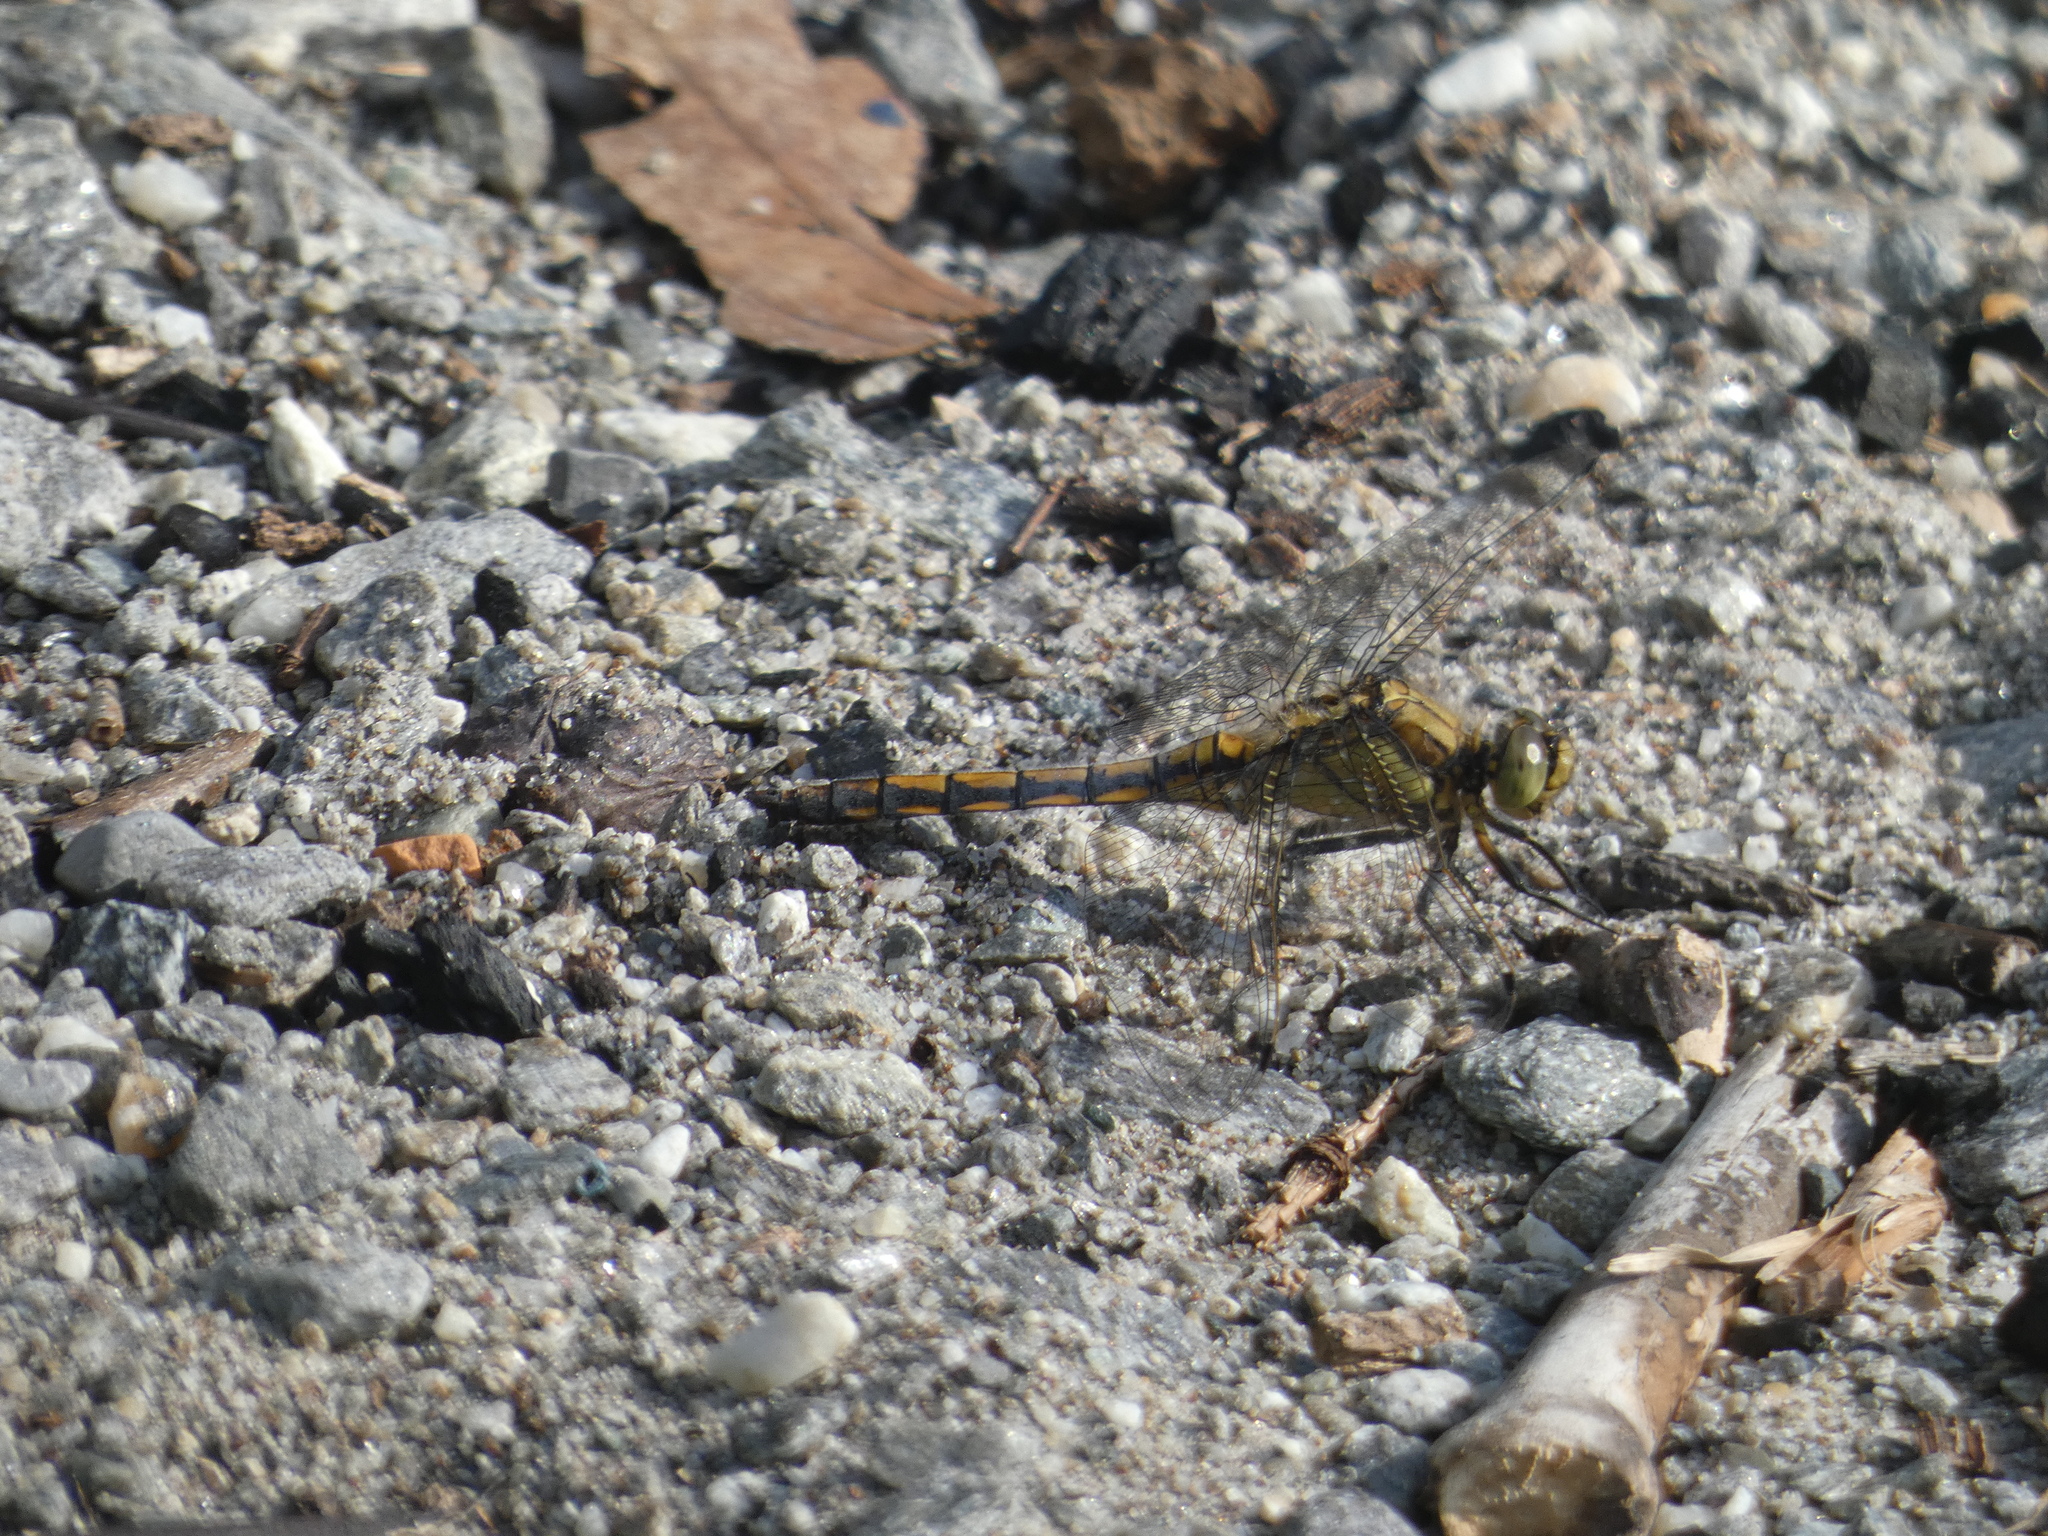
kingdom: Animalia
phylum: Arthropoda
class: Insecta
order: Odonata
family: Libellulidae
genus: Orthetrum
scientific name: Orthetrum cancellatum
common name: Black-tailed skimmer
